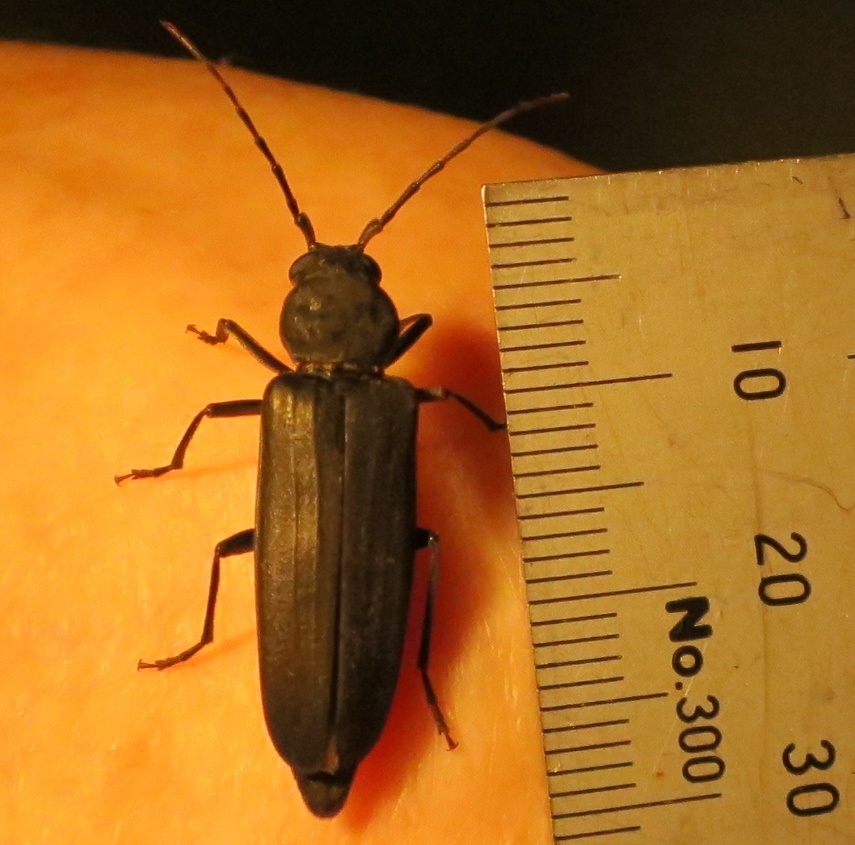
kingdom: Animalia
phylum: Arthropoda
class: Insecta
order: Coleoptera
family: Cerambycidae
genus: Arhopalus
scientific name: Arhopalus ferus
